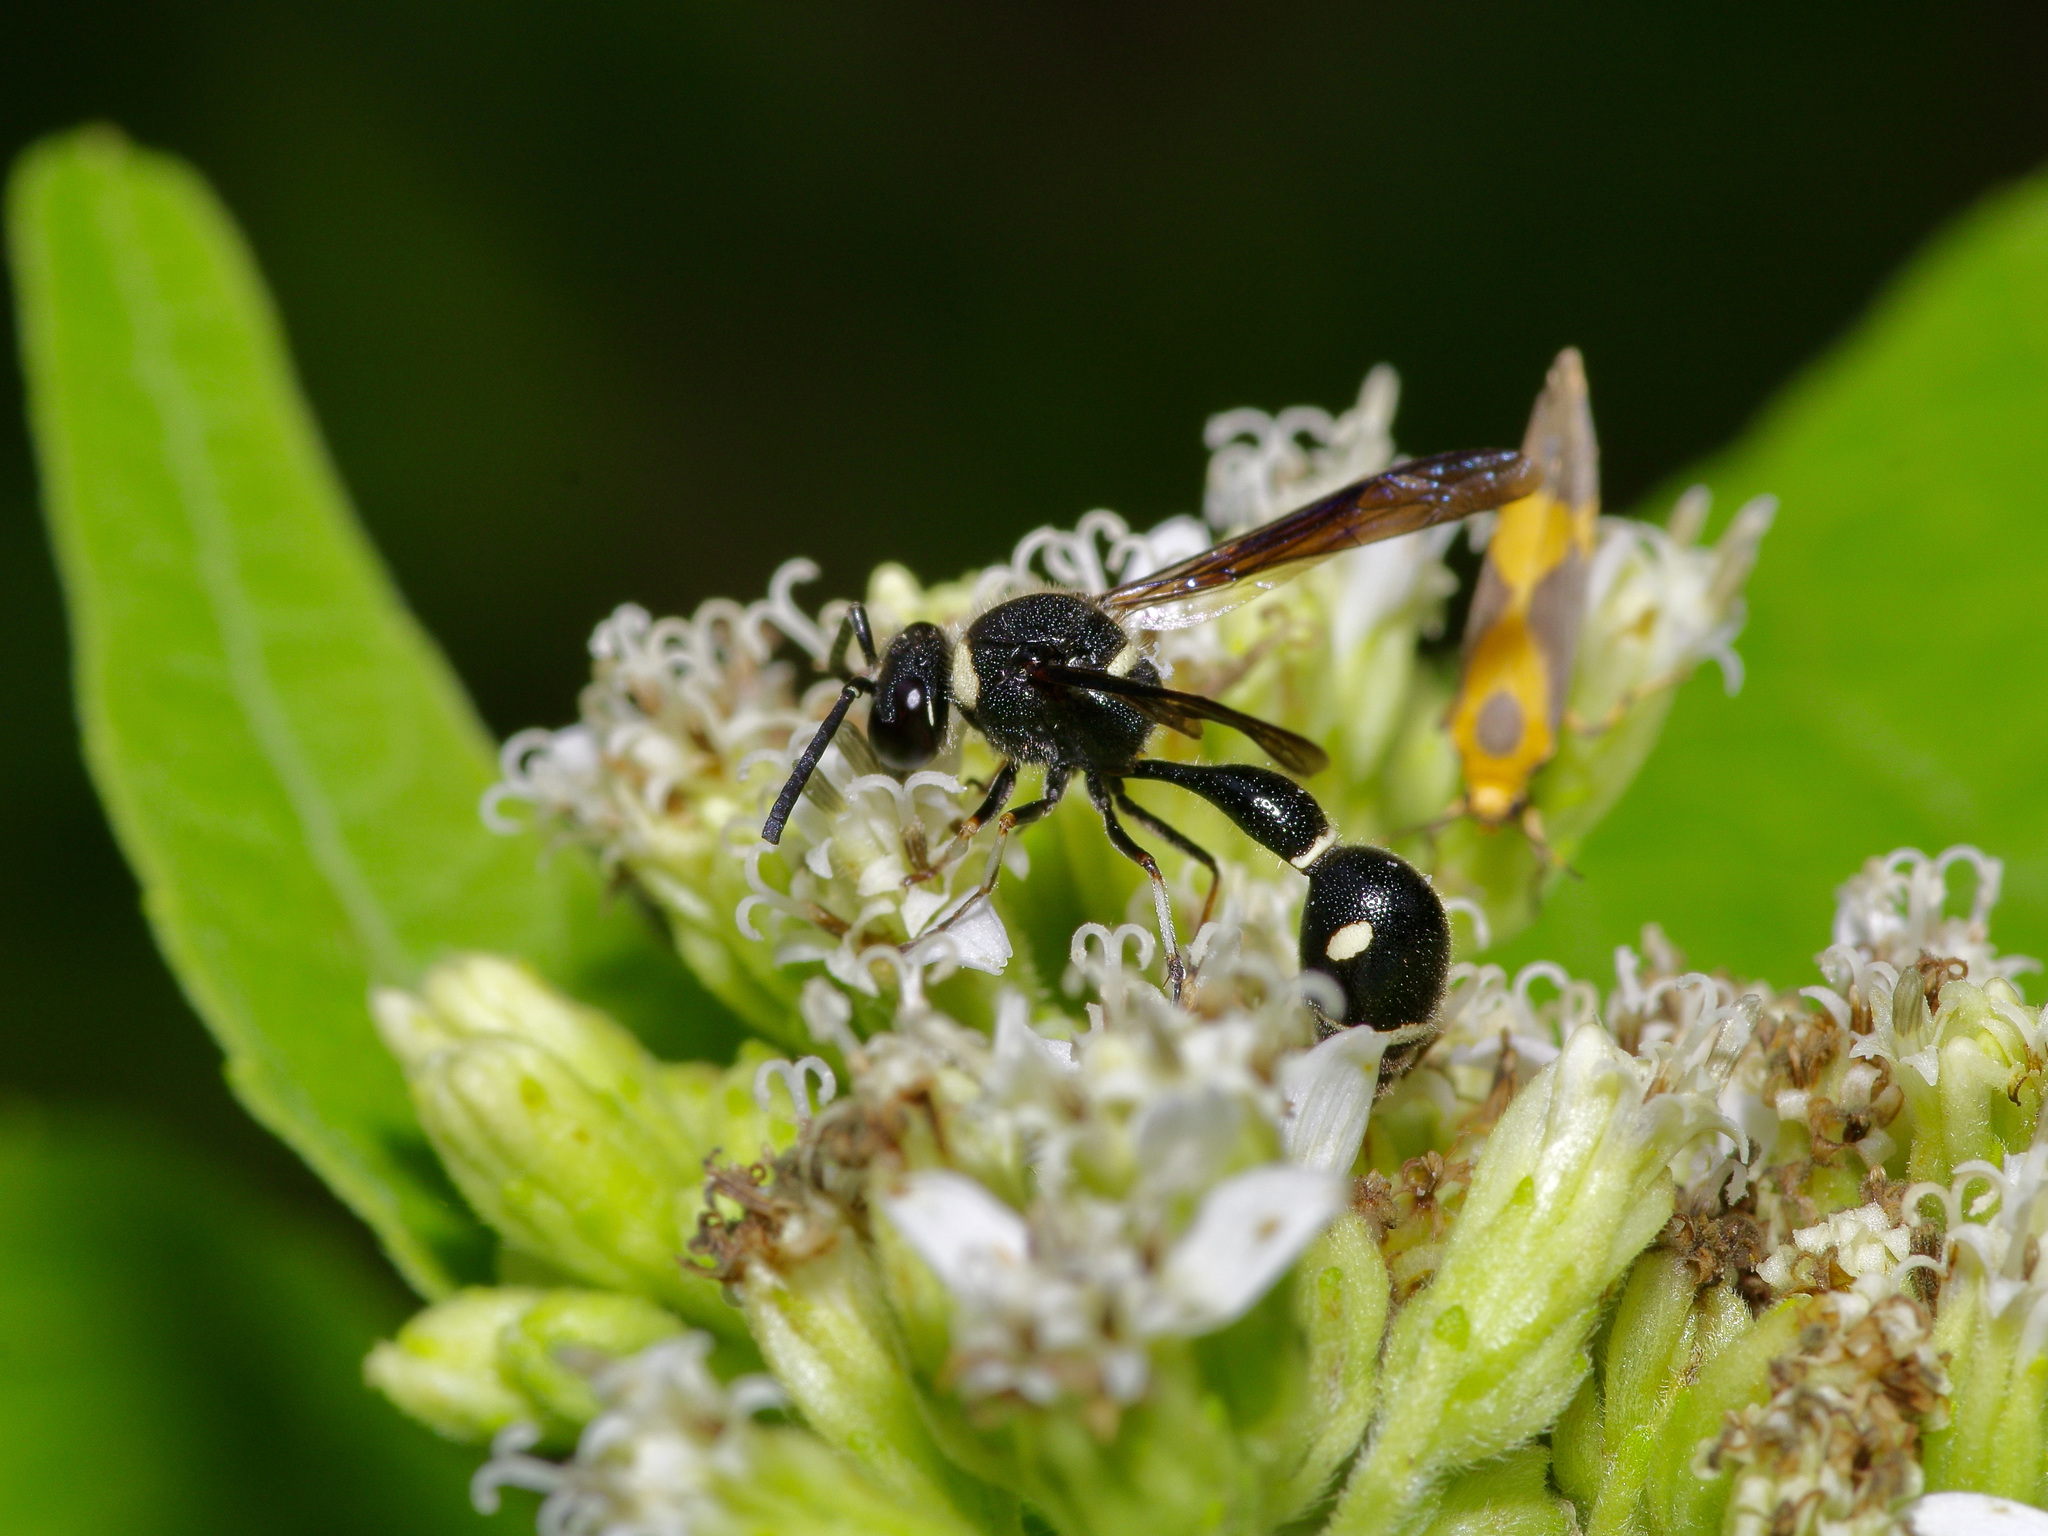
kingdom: Animalia
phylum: Arthropoda
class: Insecta
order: Hymenoptera
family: Vespidae
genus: Eumenes
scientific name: Eumenes fraternus
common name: Fraternal potter wasp
